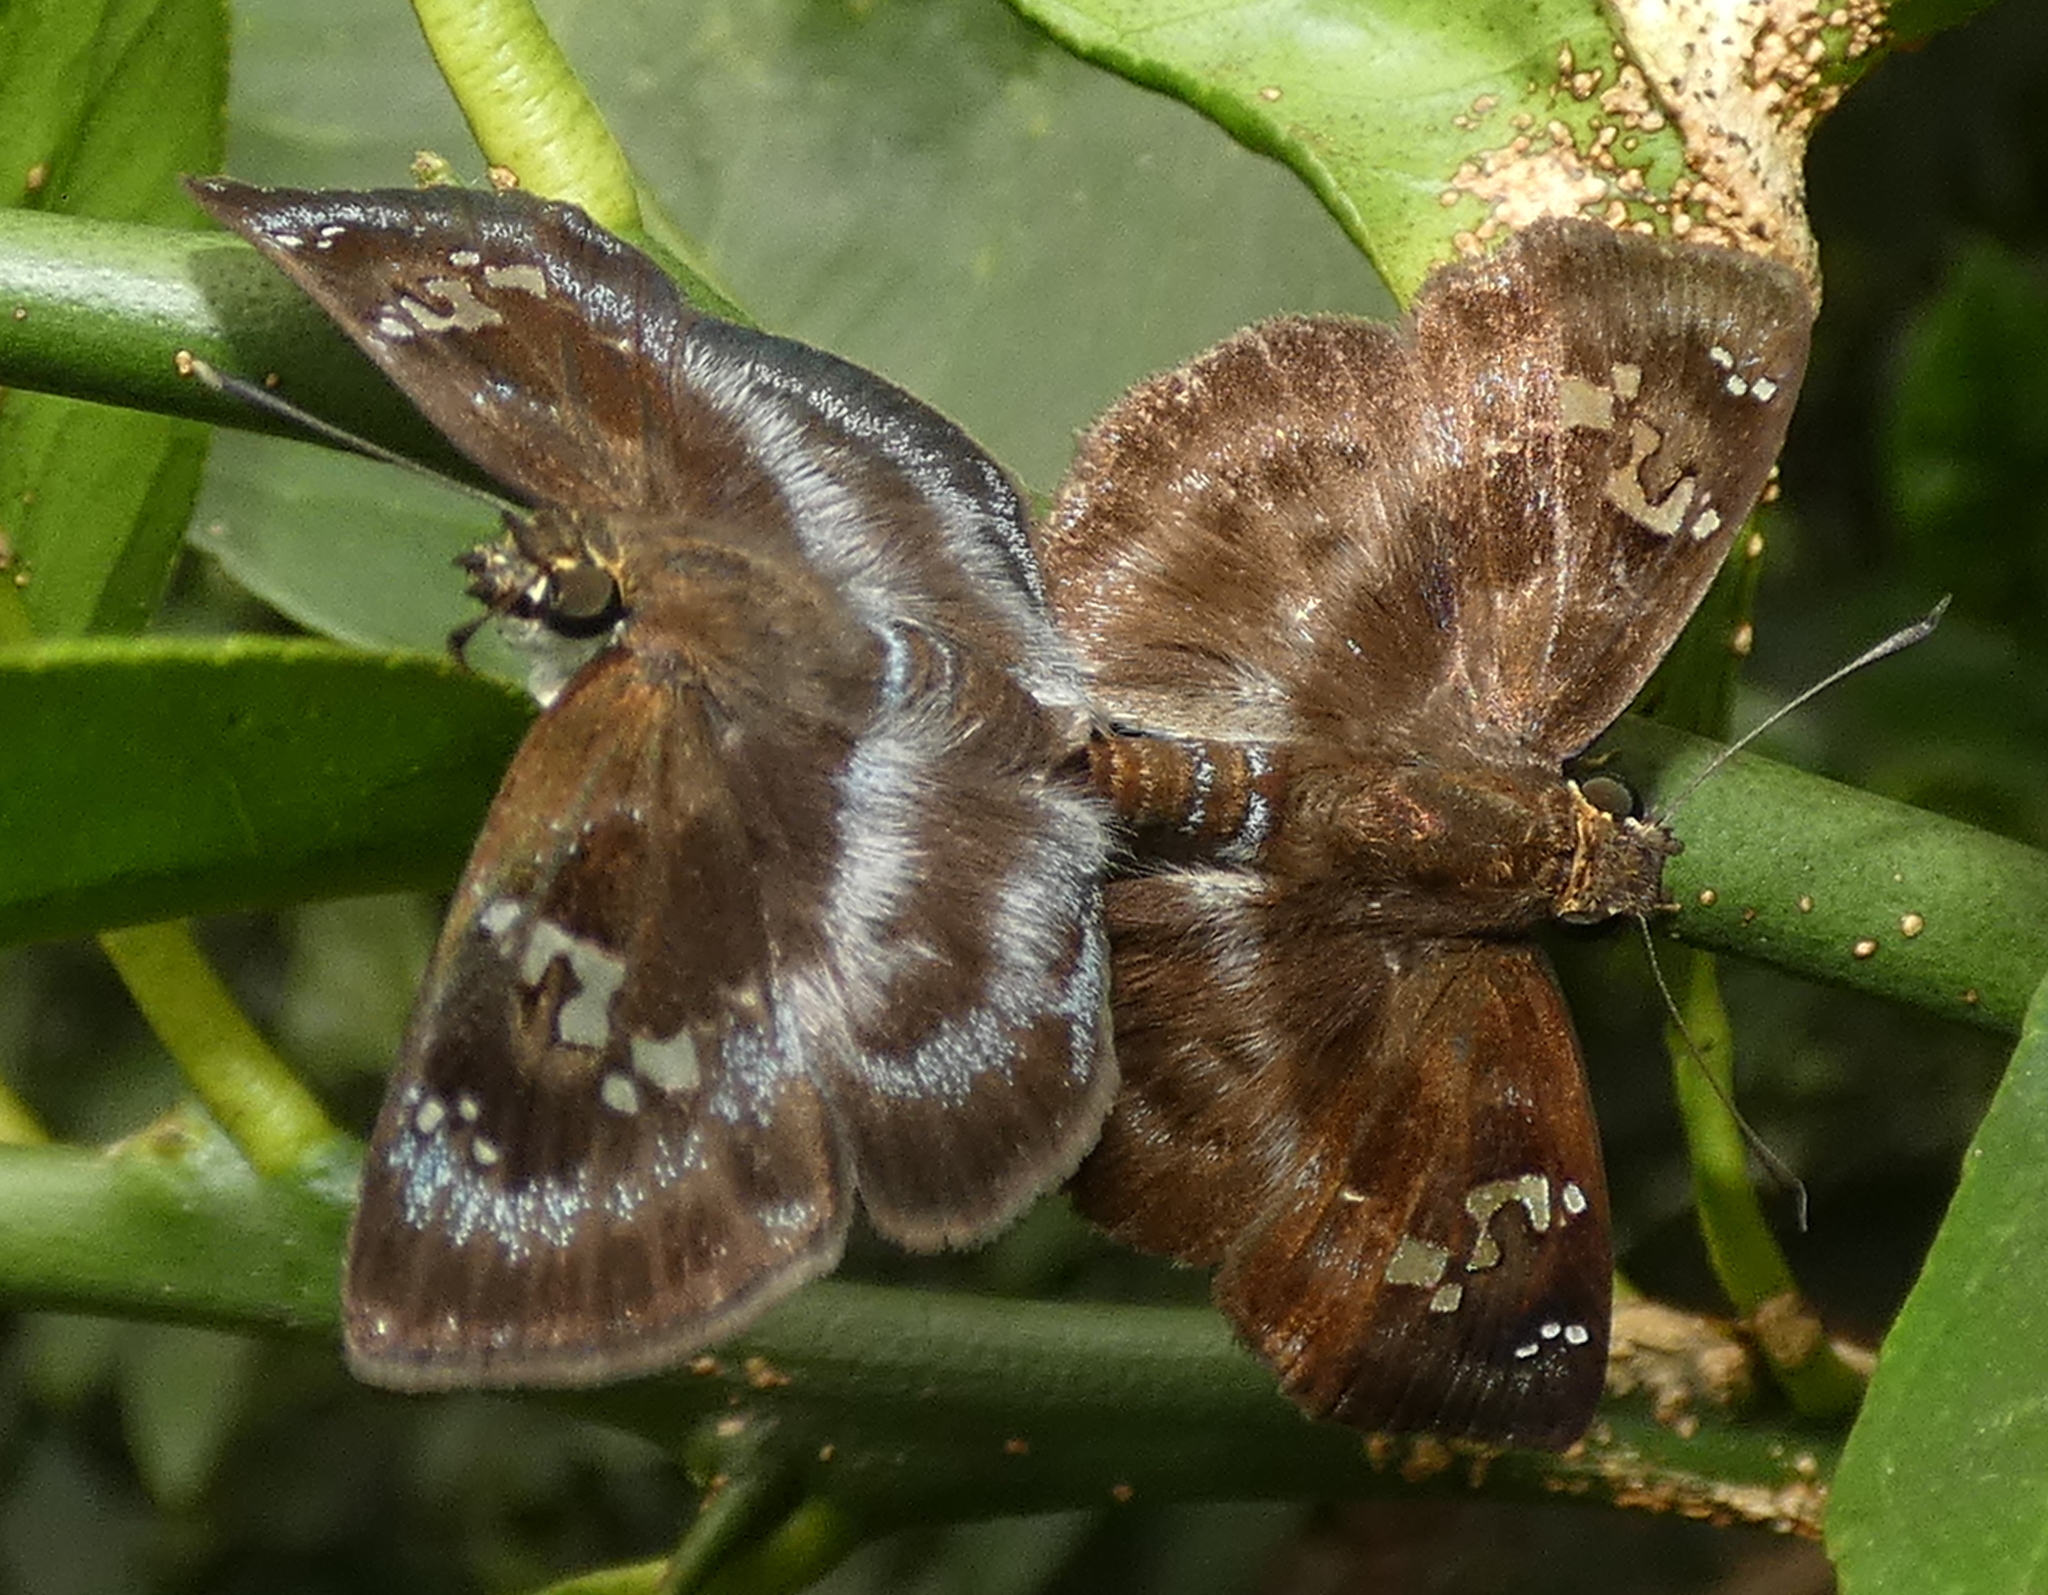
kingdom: Animalia
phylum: Arthropoda
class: Insecta
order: Lepidoptera
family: Hesperiidae
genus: Quadrus
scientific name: Quadrus cerialis
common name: Common blue-skipper
